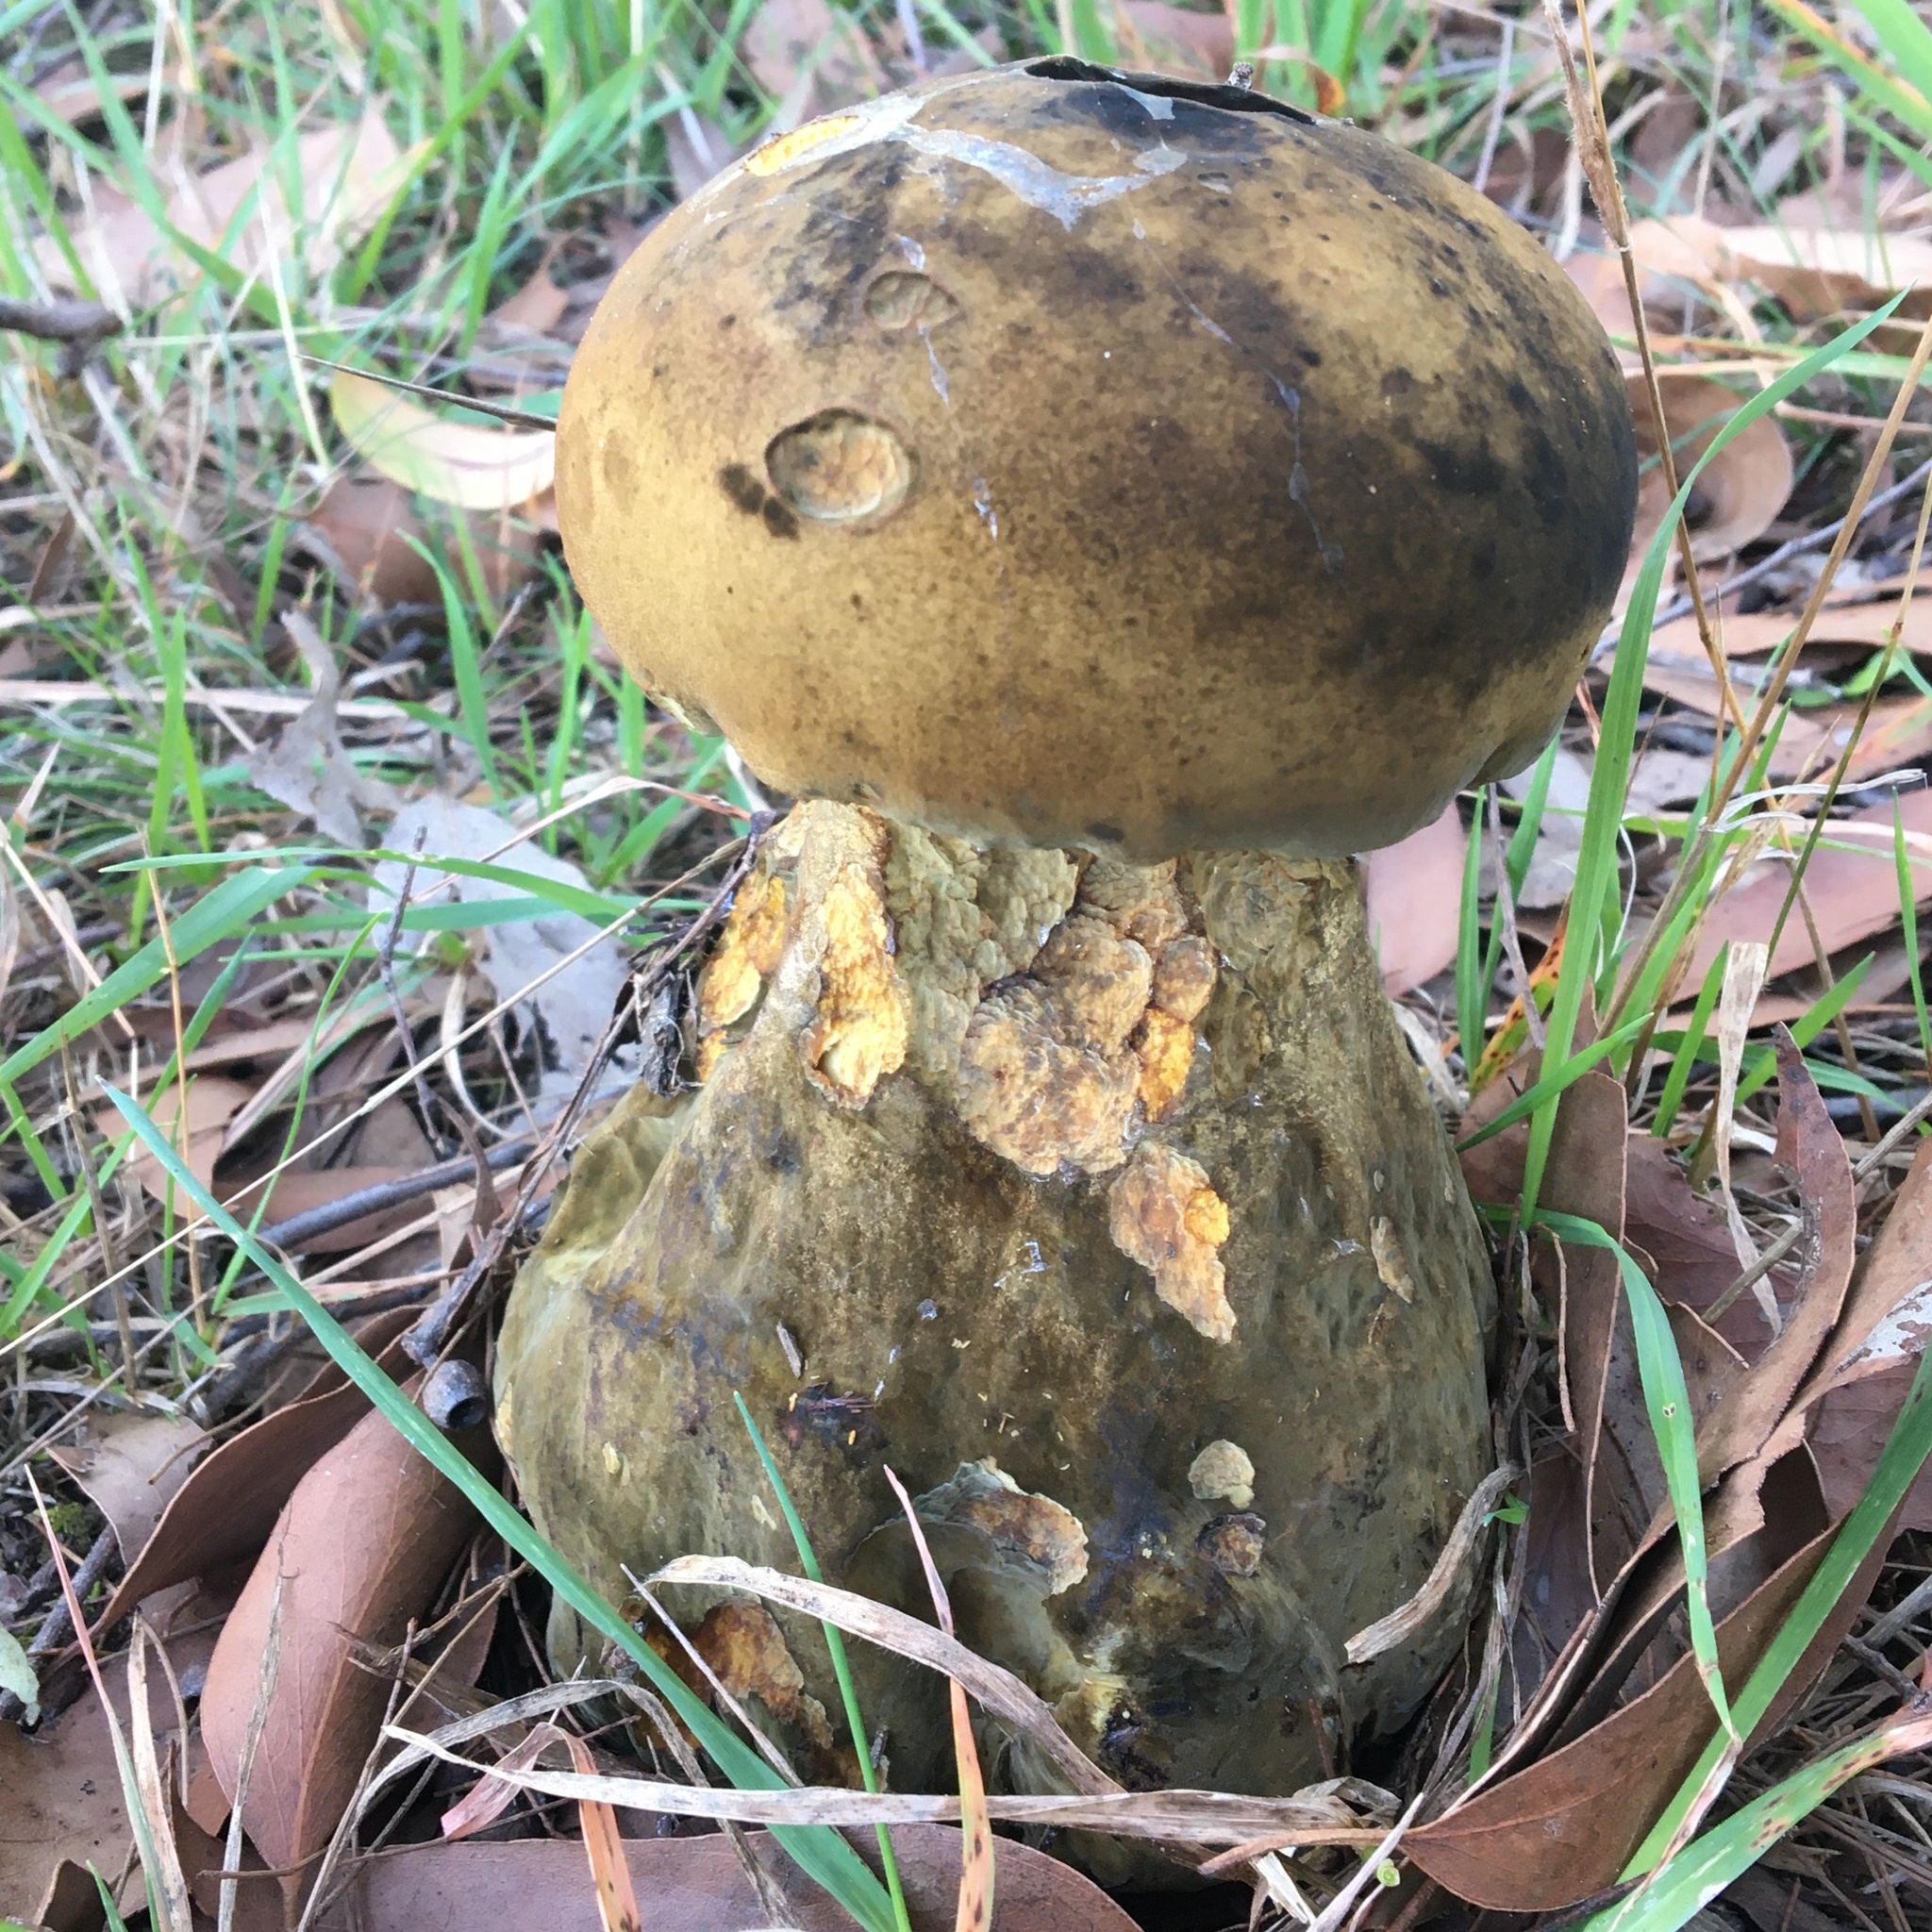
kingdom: Fungi
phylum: Basidiomycota
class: Agaricomycetes
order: Boletales
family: Boletinellaceae
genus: Phlebopus
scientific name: Phlebopus marginatus
